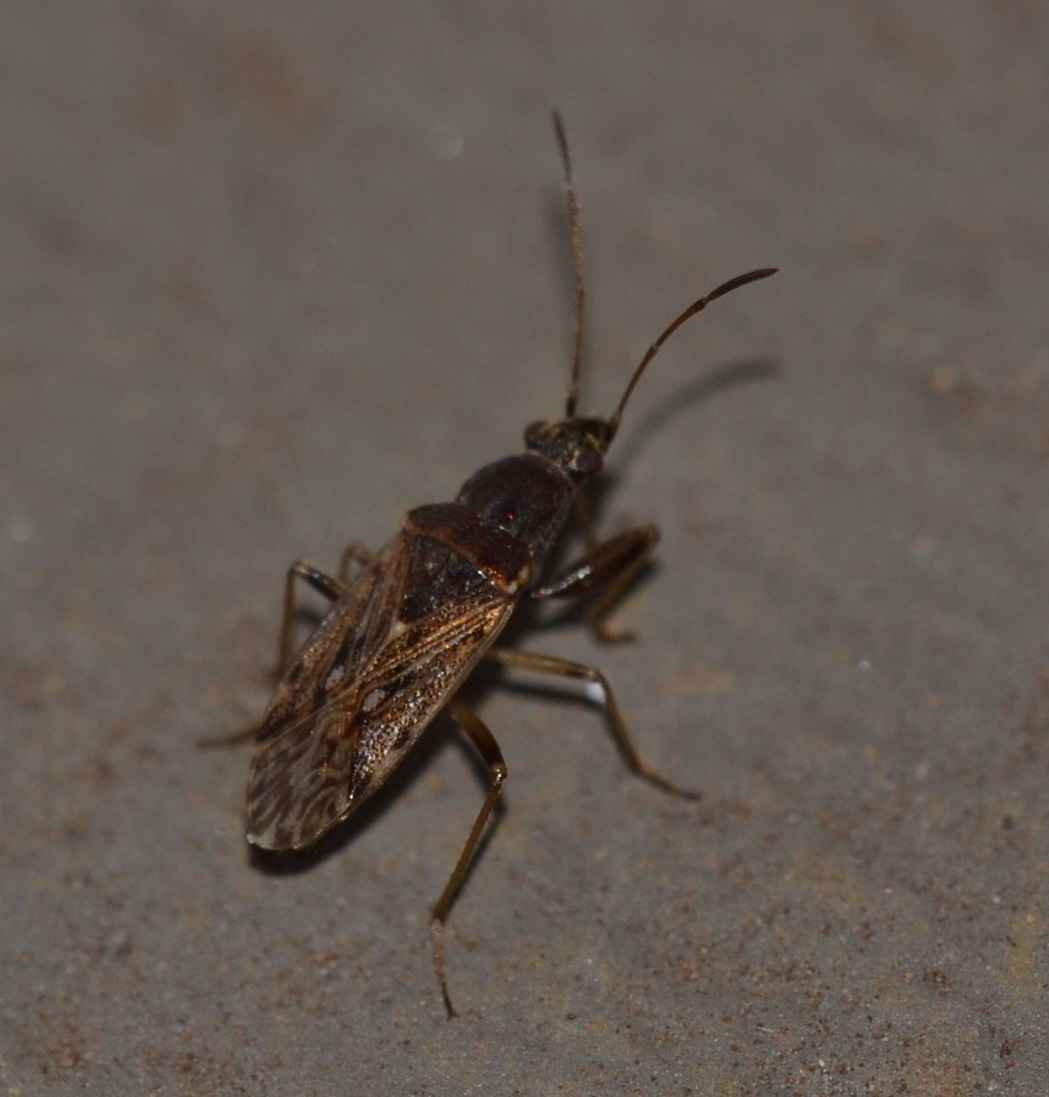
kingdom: Animalia
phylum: Arthropoda
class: Insecta
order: Hemiptera
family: Rhyparochromidae
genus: Horridipamera
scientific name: Horridipamera inconspicuus
